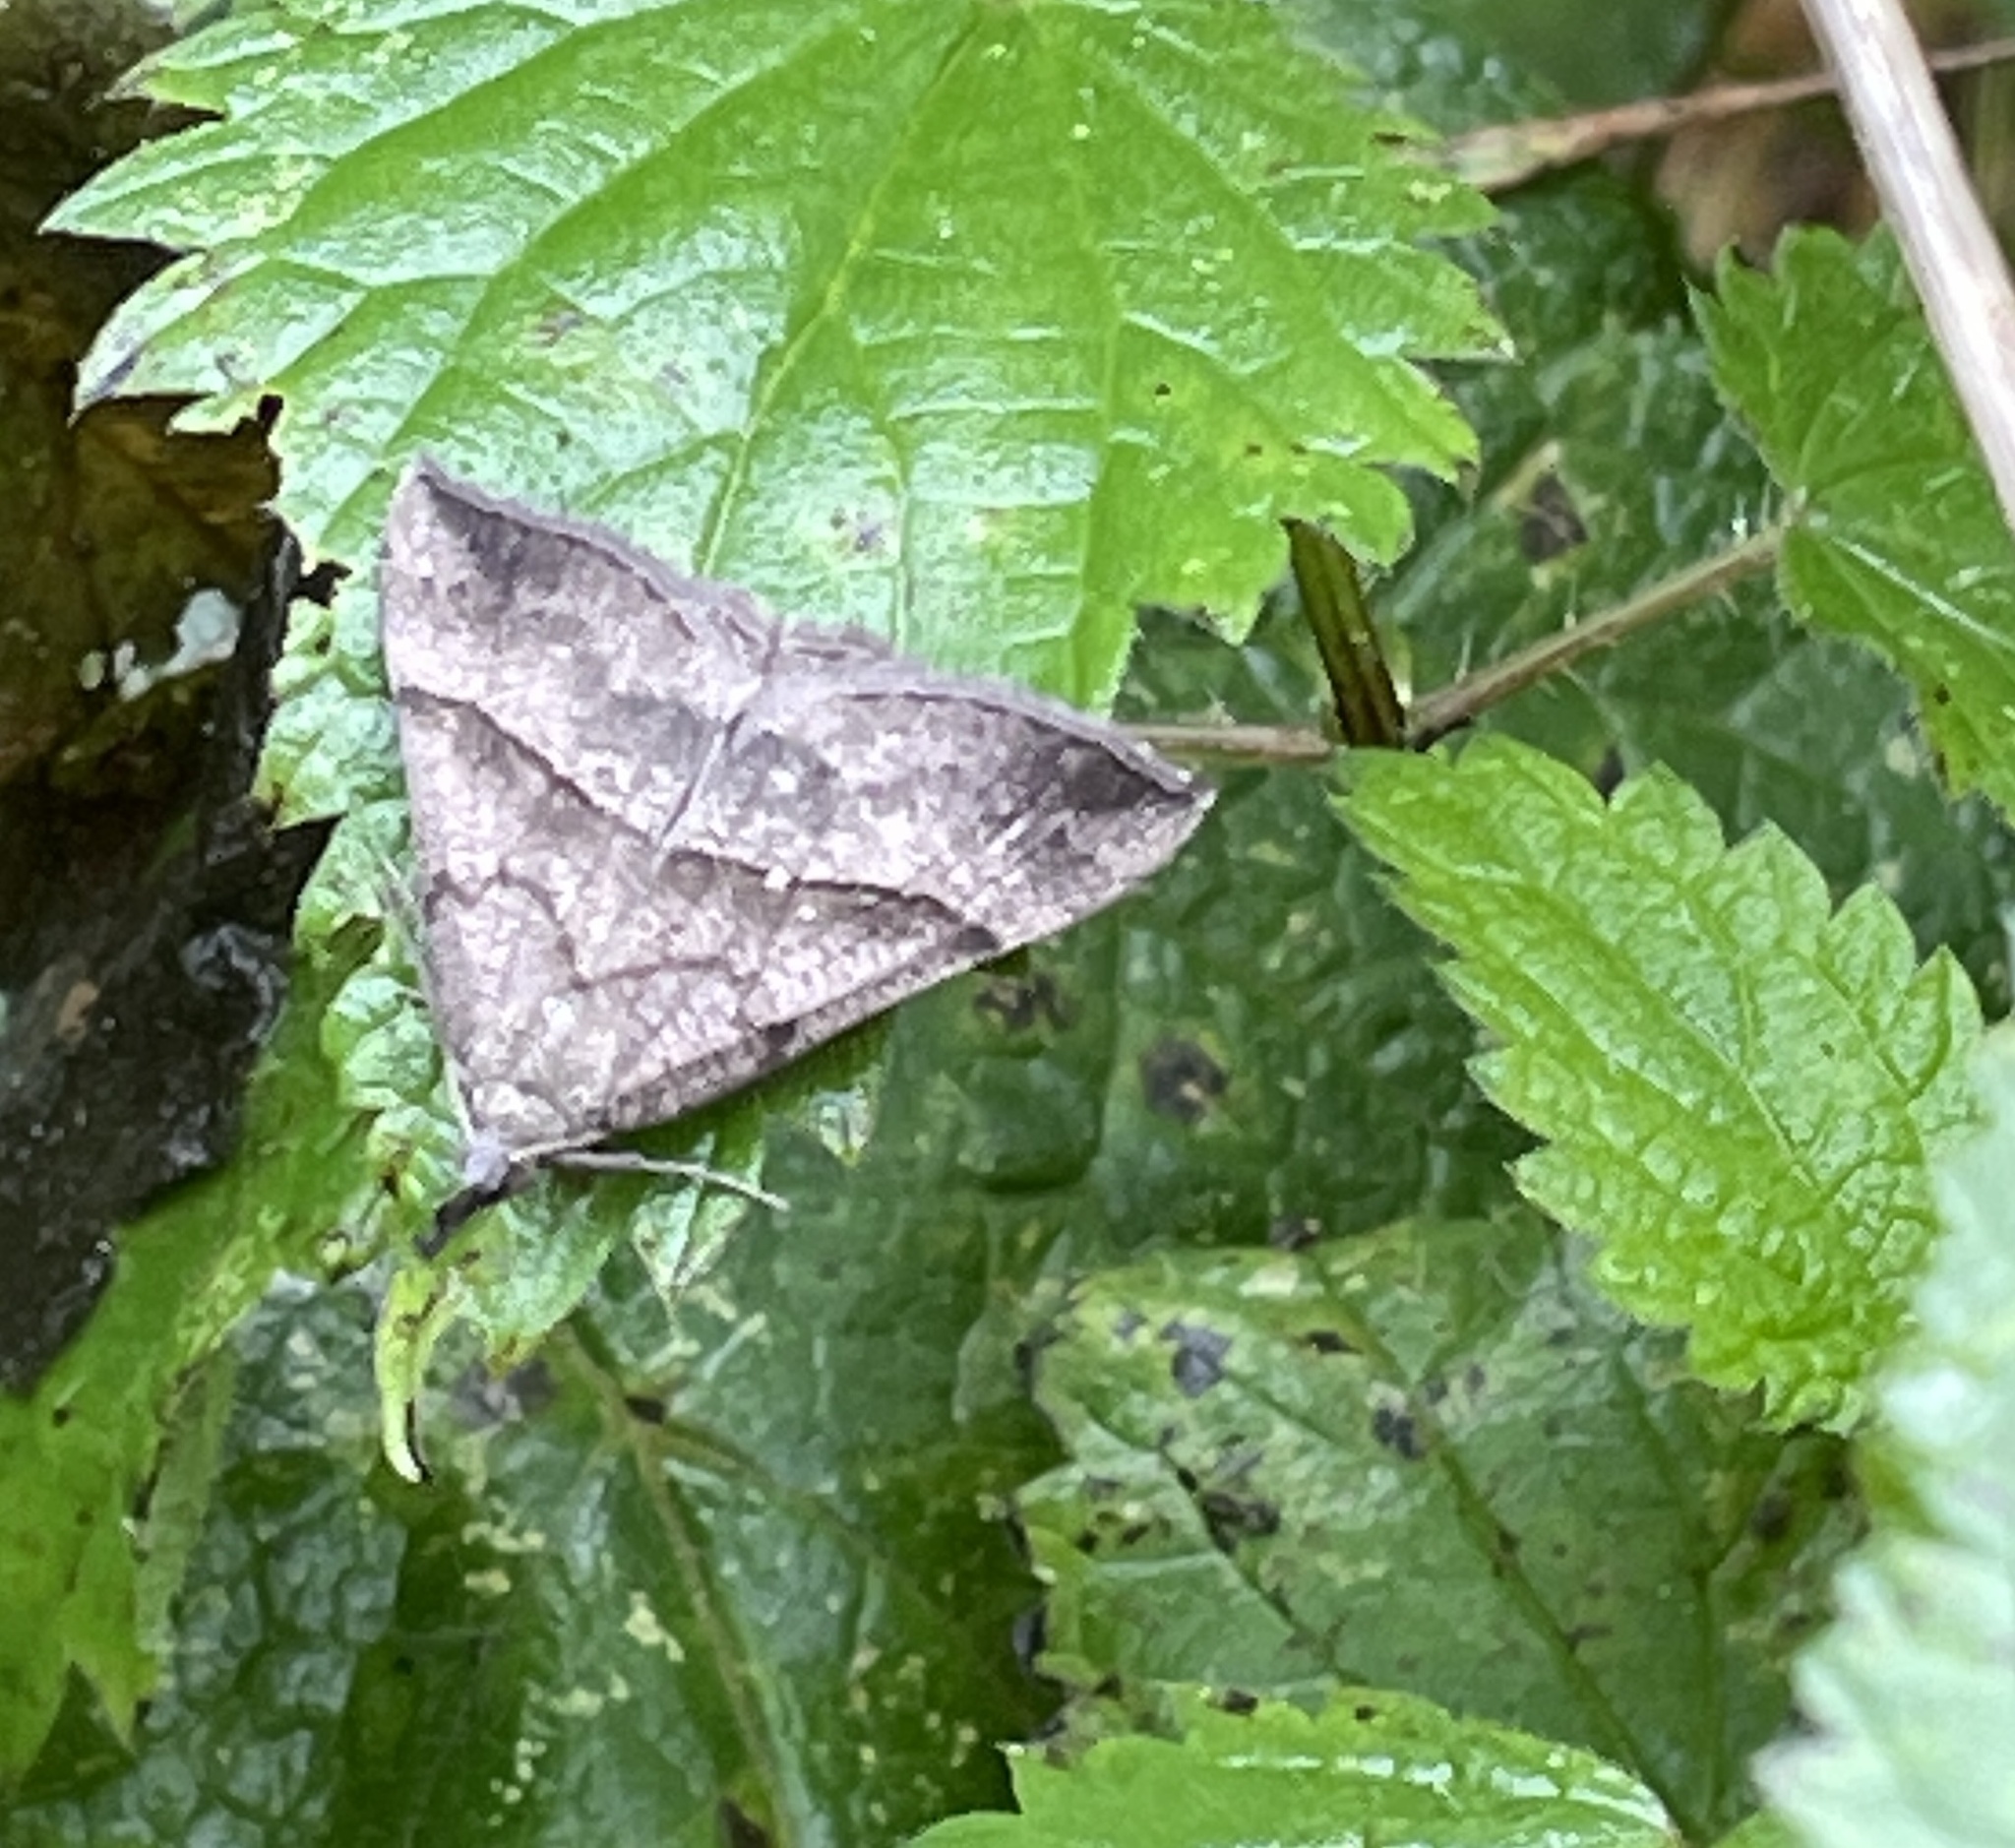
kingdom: Animalia
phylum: Arthropoda
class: Insecta
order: Lepidoptera
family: Erebidae
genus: Hypena
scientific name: Hypena proboscidalis
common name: Snout
